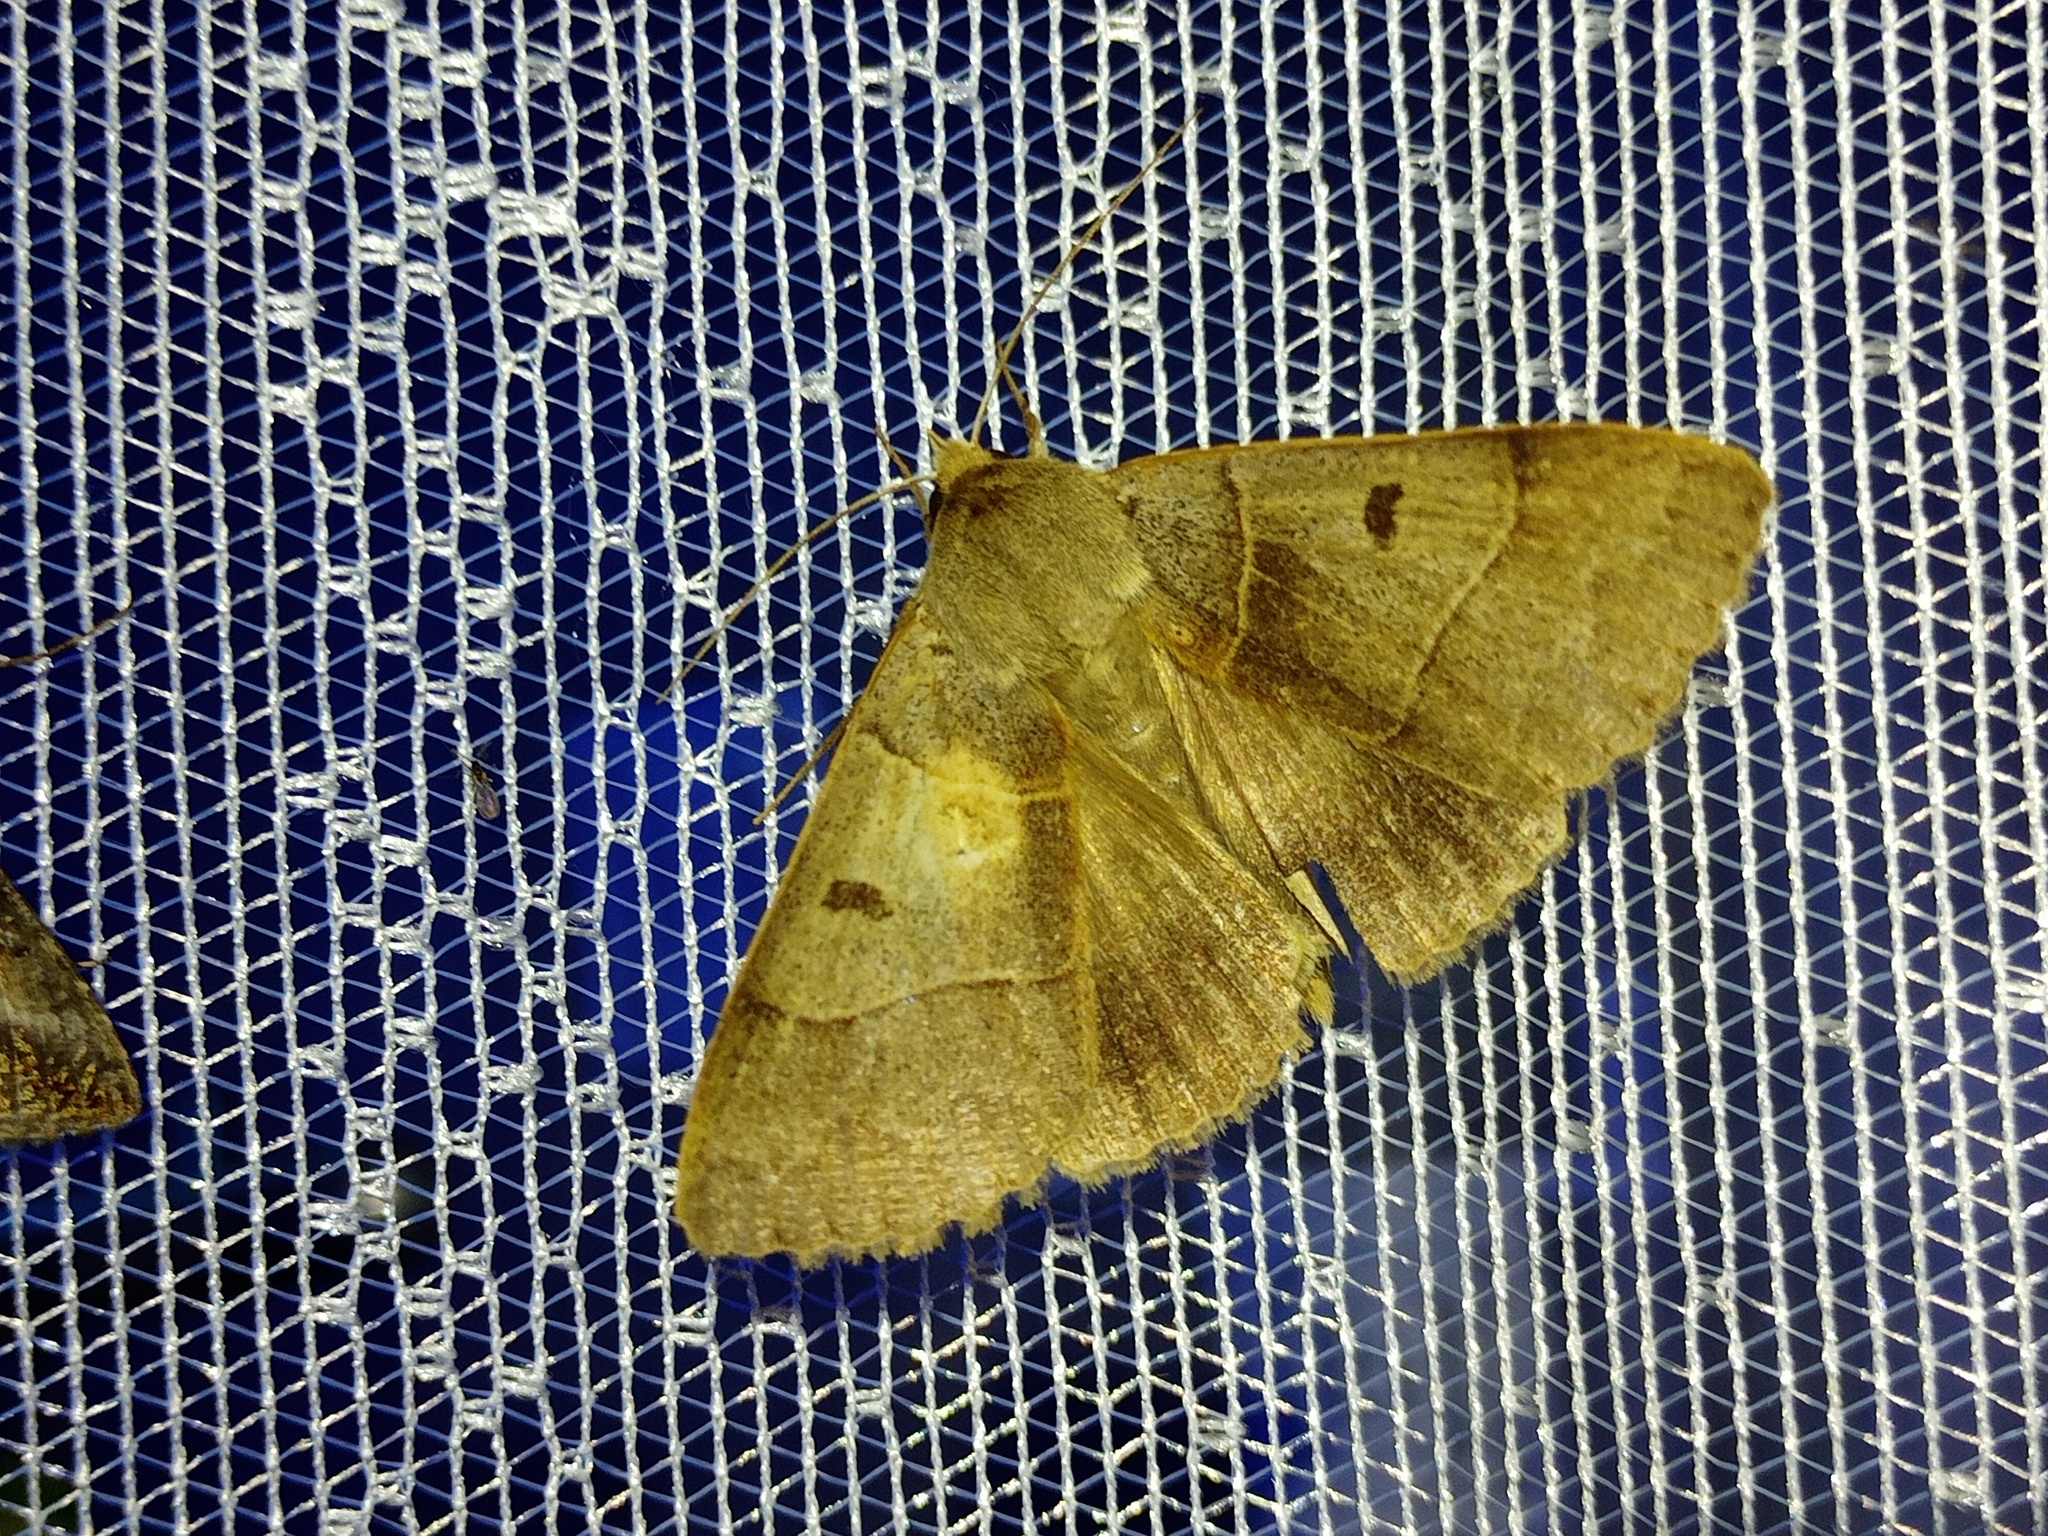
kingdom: Animalia
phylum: Arthropoda
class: Insecta
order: Lepidoptera
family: Erebidae
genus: Minucia
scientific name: Minucia lunaris
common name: Lunar double-stripe
